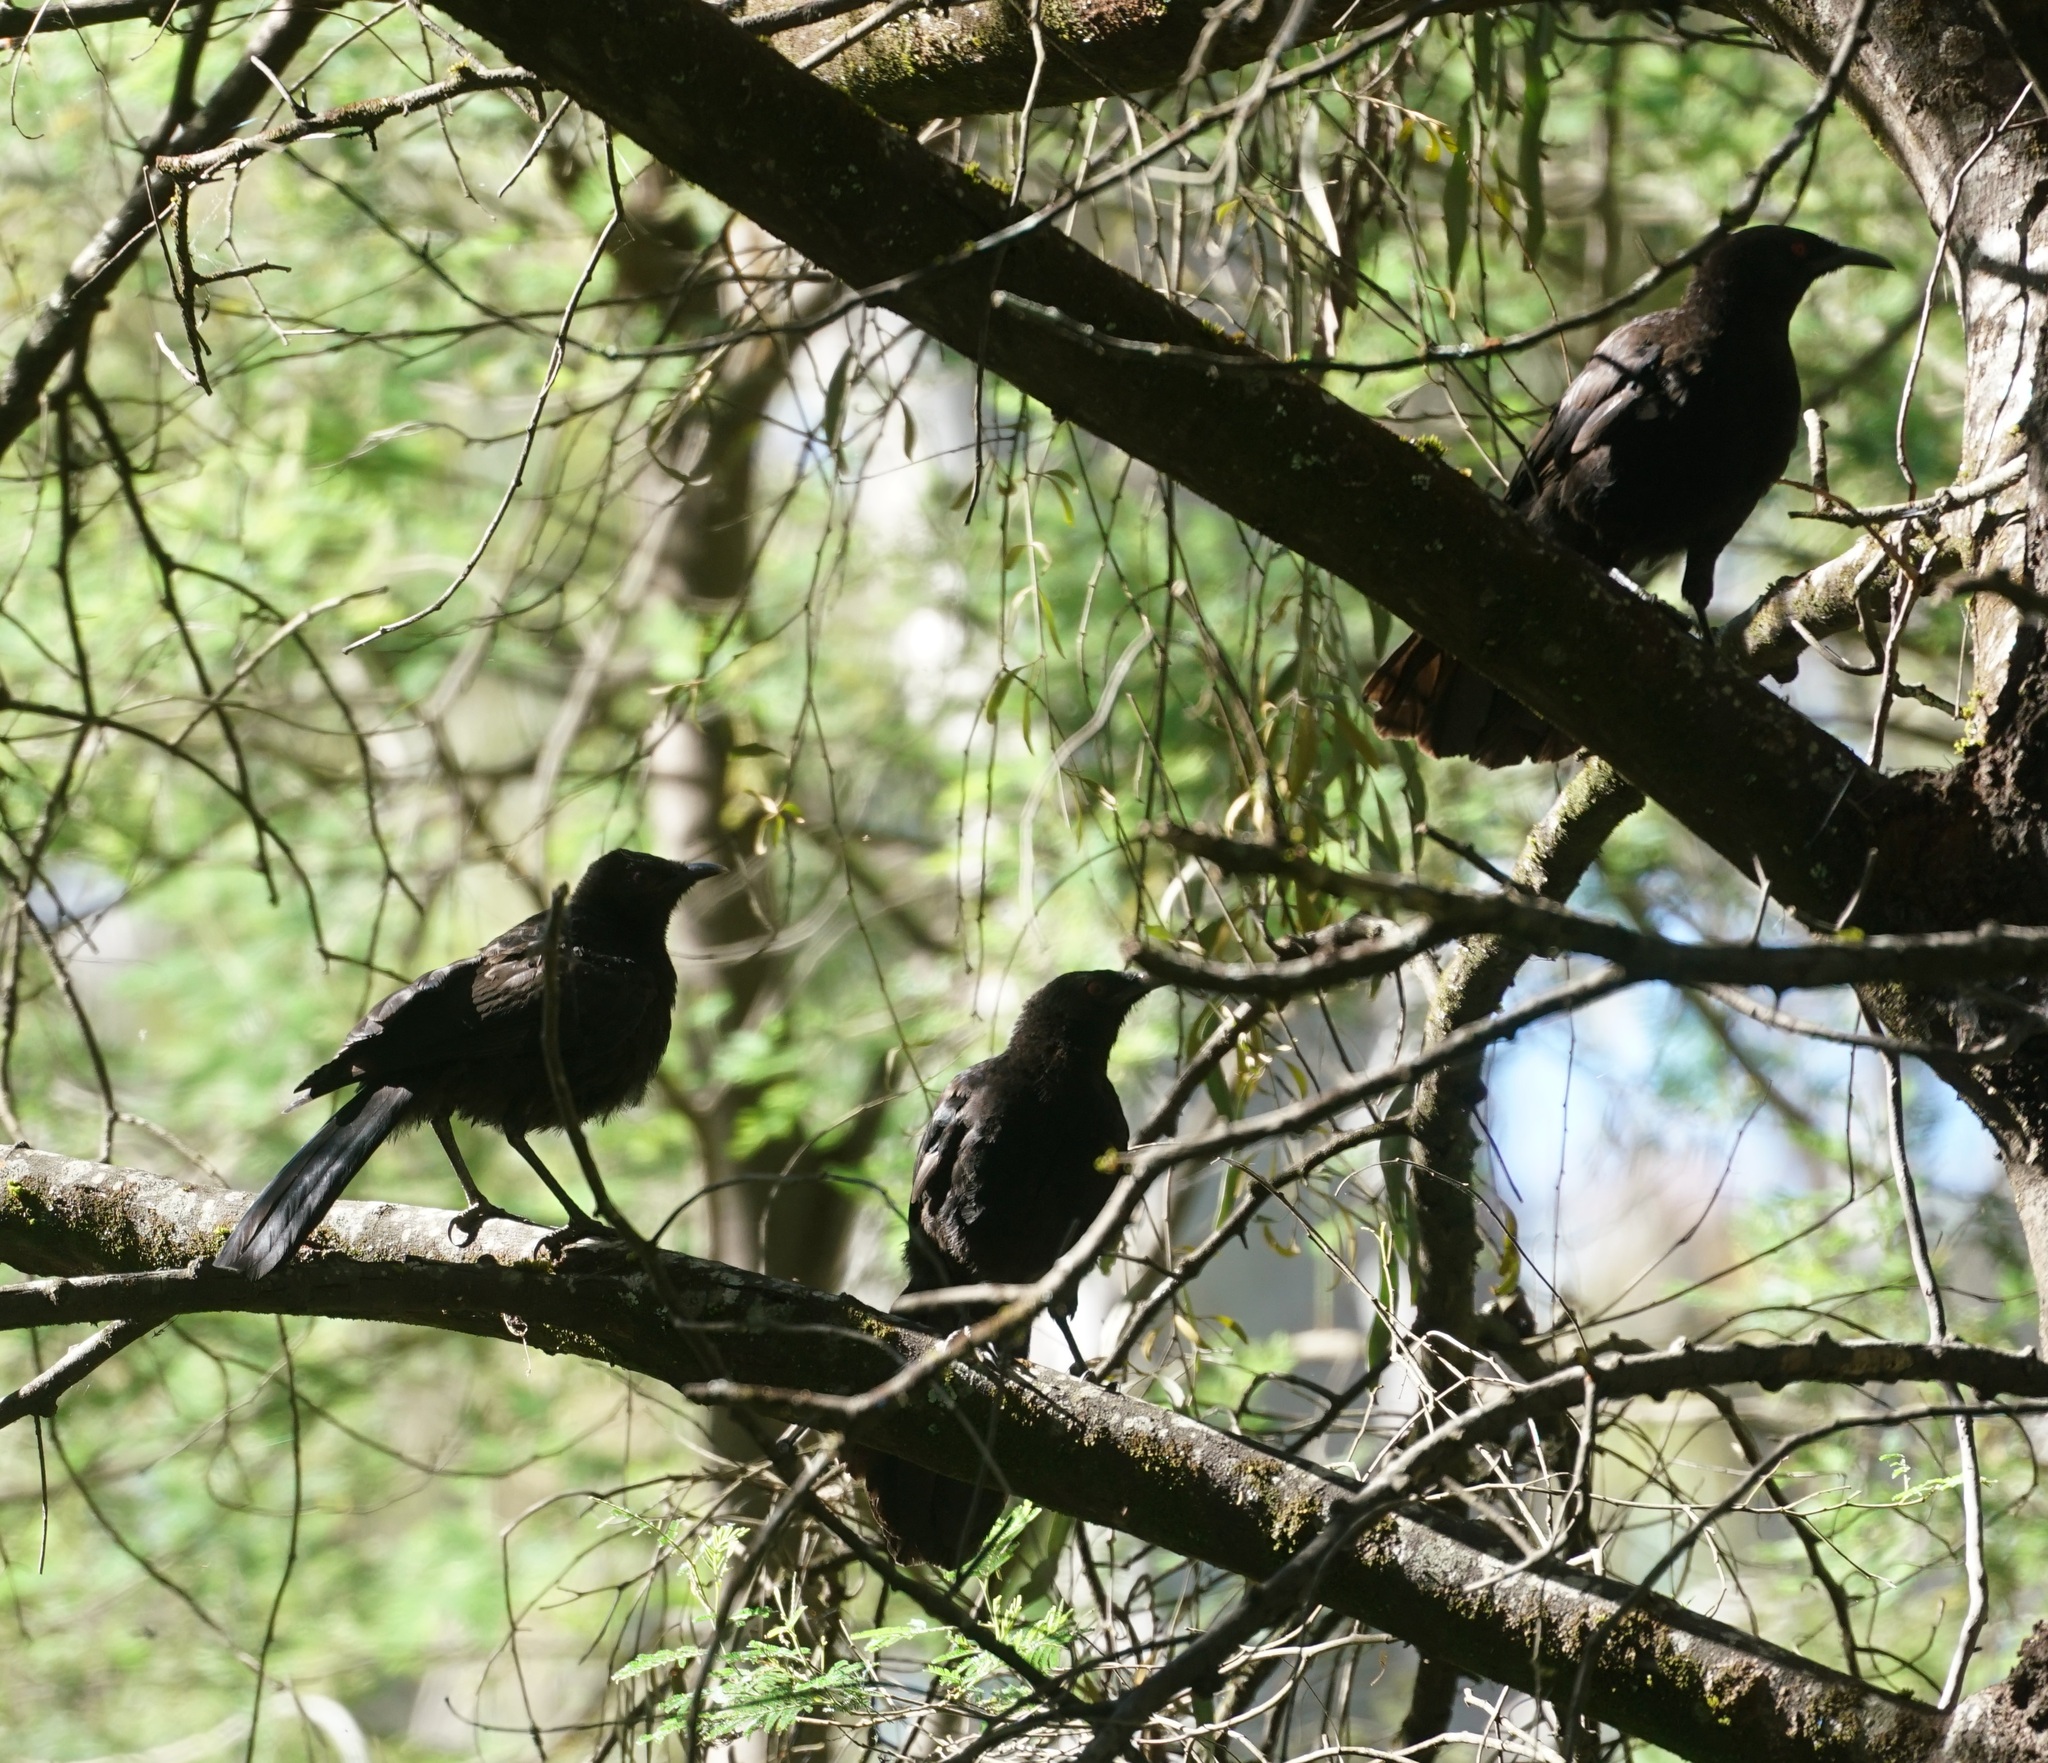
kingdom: Animalia
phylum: Chordata
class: Aves
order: Passeriformes
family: Corcoracidae
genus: Corcorax
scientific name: Corcorax melanoramphos
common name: White-winged chough
